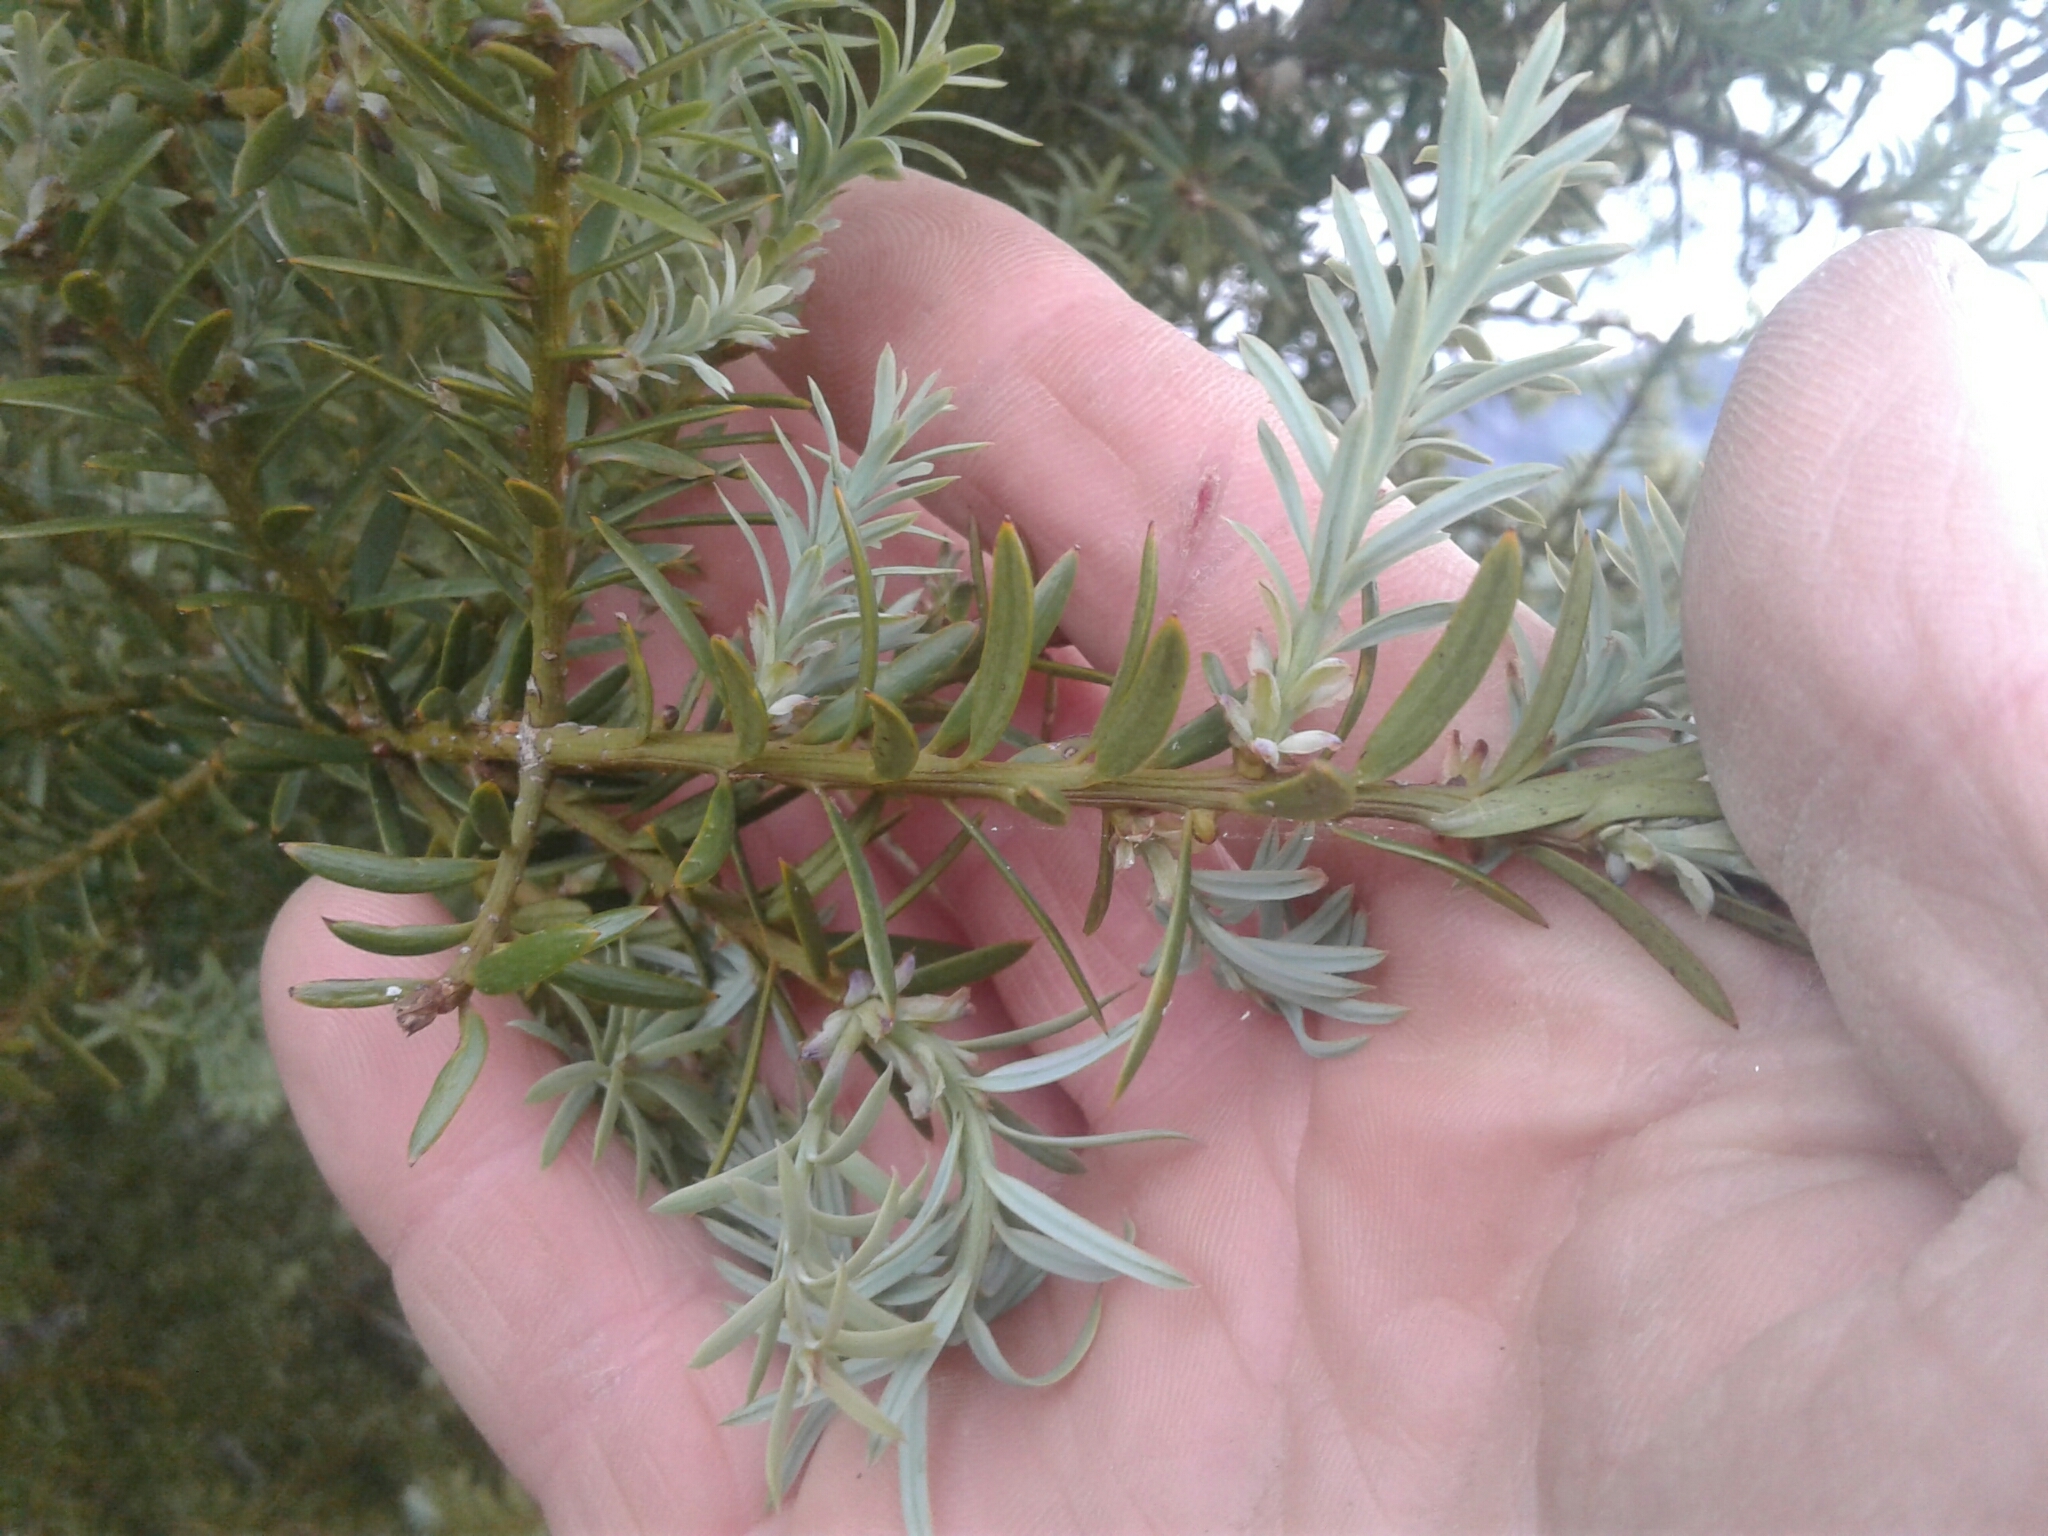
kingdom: Plantae
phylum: Tracheophyta
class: Pinopsida
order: Pinales
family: Podocarpaceae
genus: Podocarpus
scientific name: Podocarpus totara
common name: Totara
